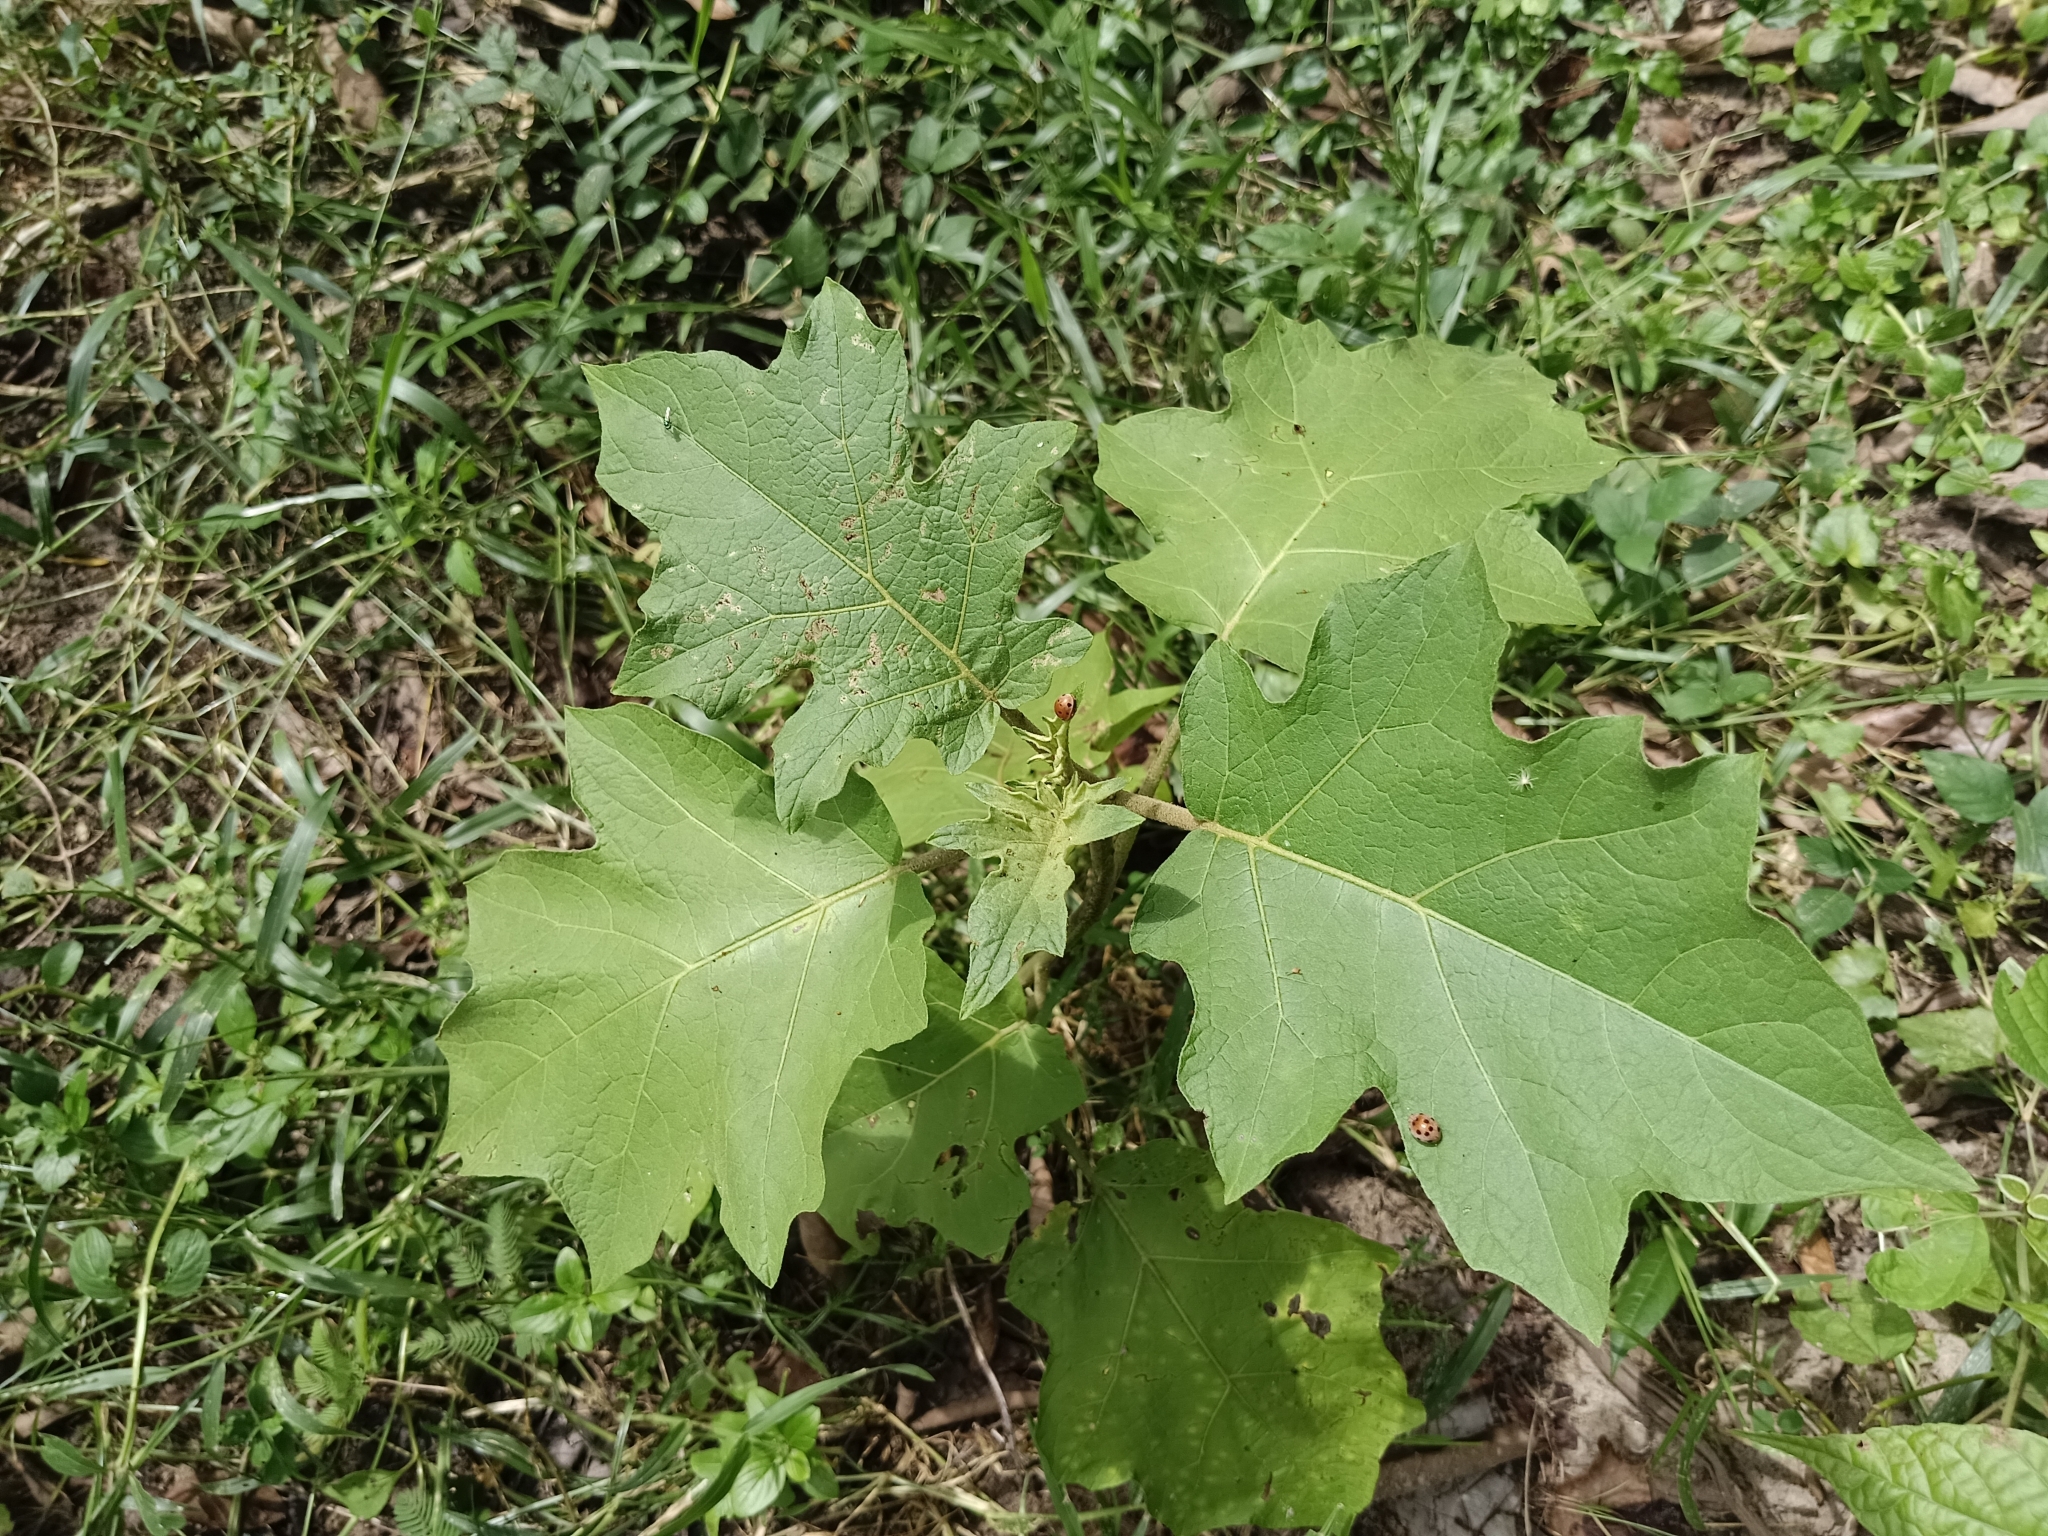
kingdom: Plantae
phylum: Tracheophyta
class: Magnoliopsida
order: Solanales
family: Solanaceae
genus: Solanum
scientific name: Solanum torvum
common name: Turkey berry
